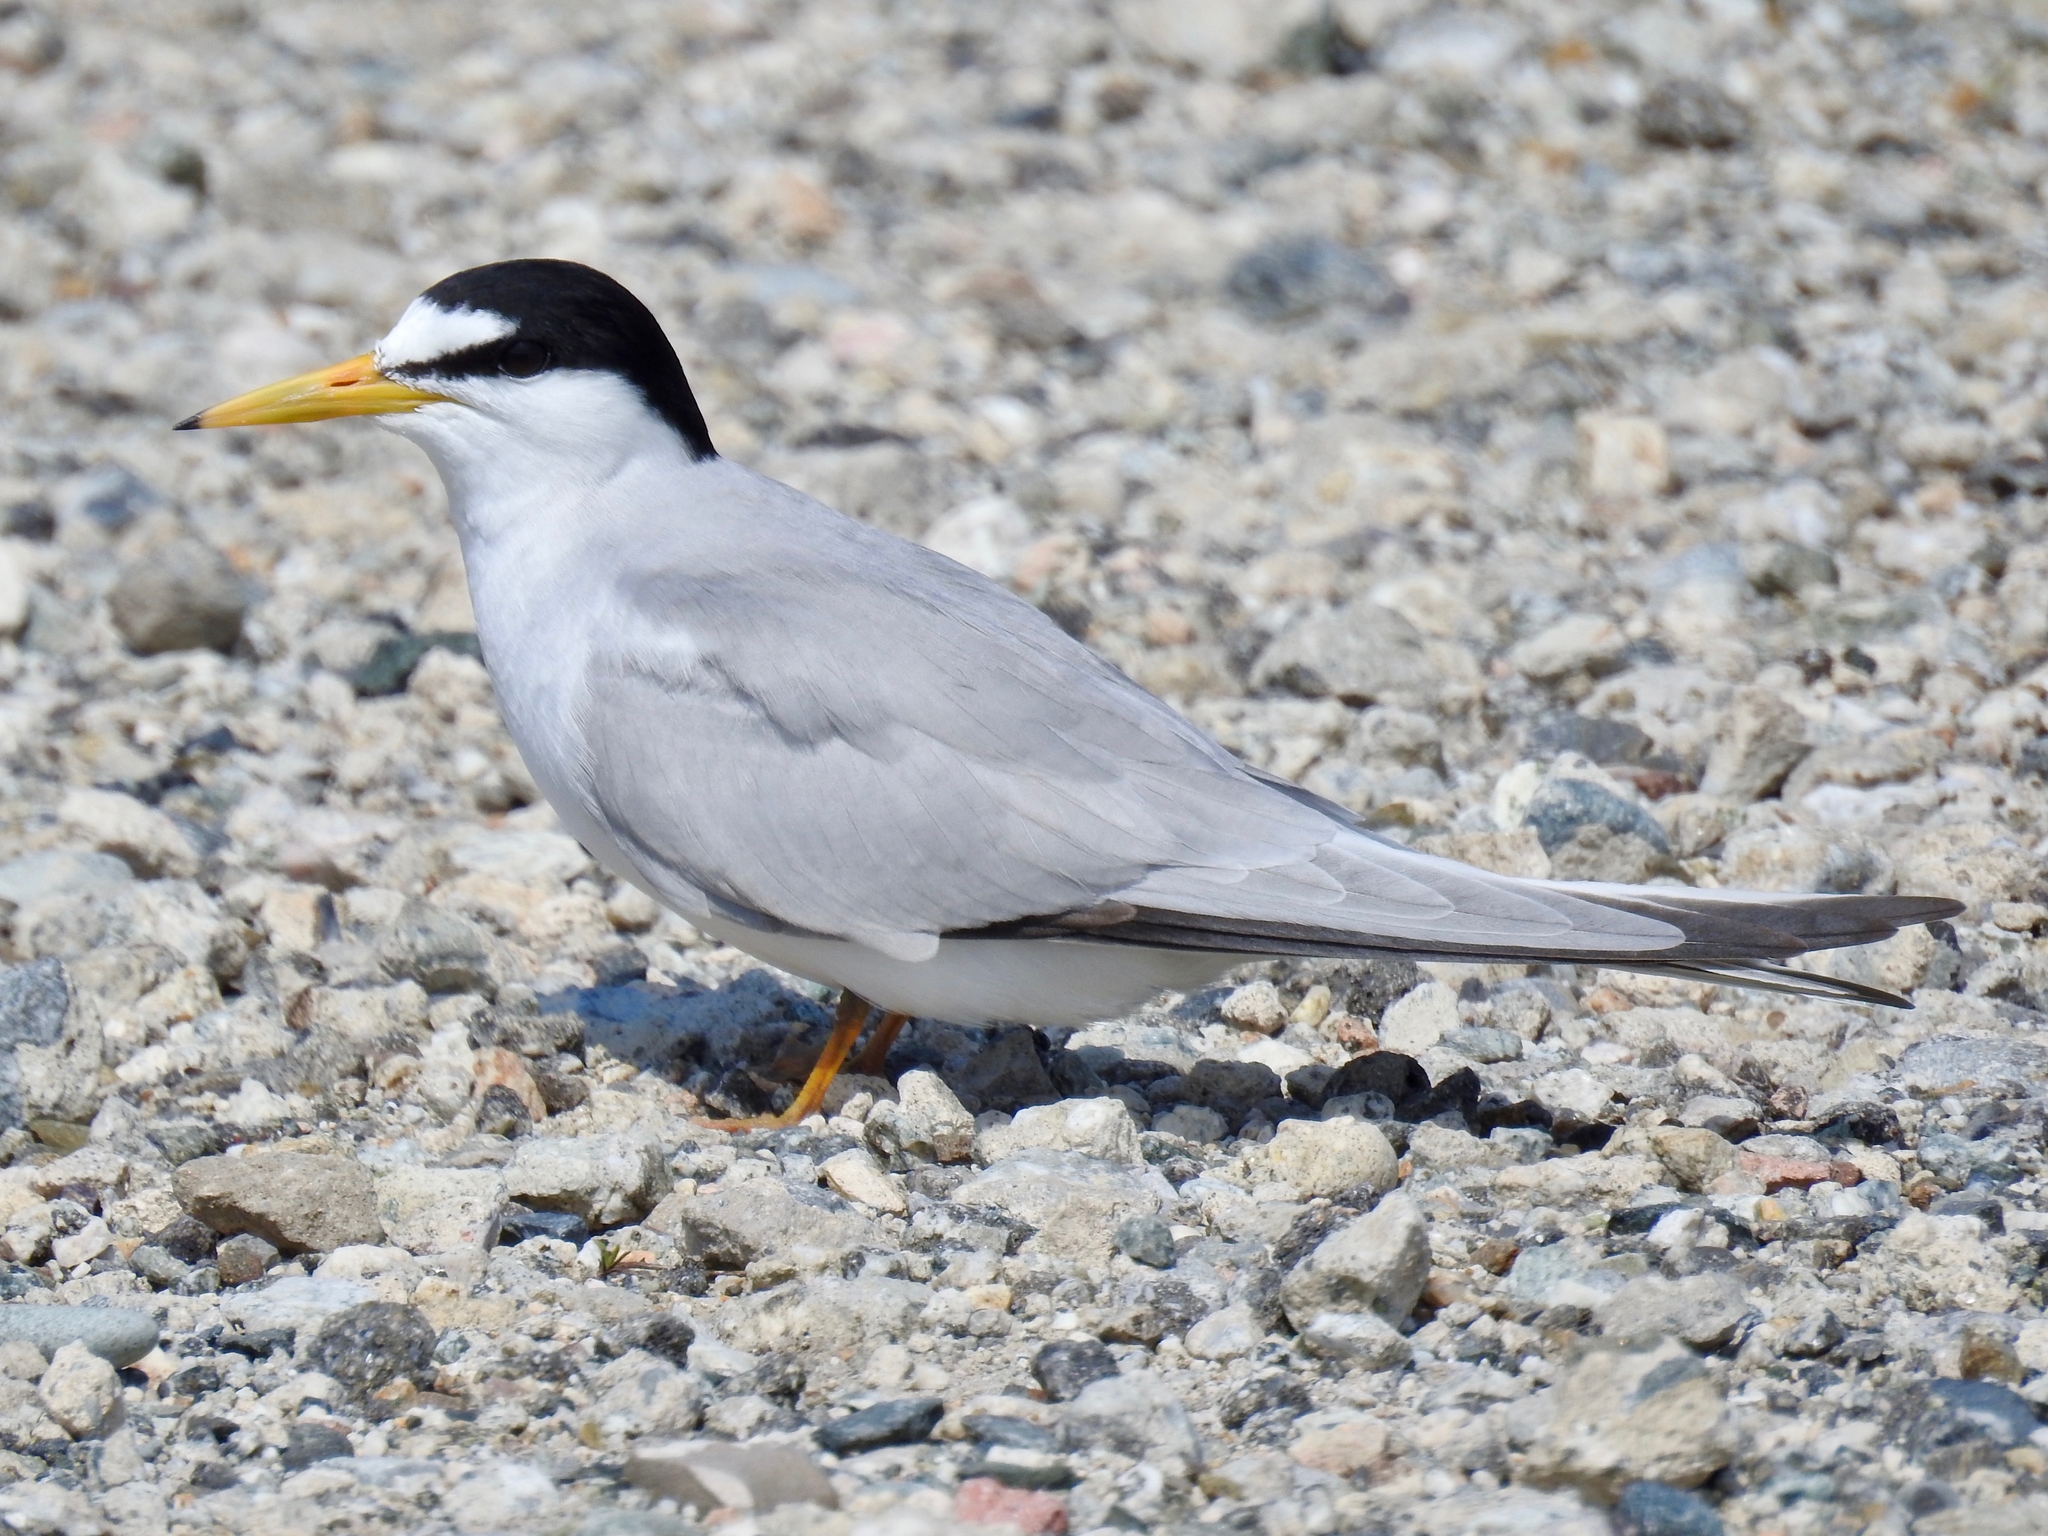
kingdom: Animalia
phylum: Chordata
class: Aves
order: Charadriiformes
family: Laridae
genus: Sternula
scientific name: Sternula antillarum
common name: Least tern
